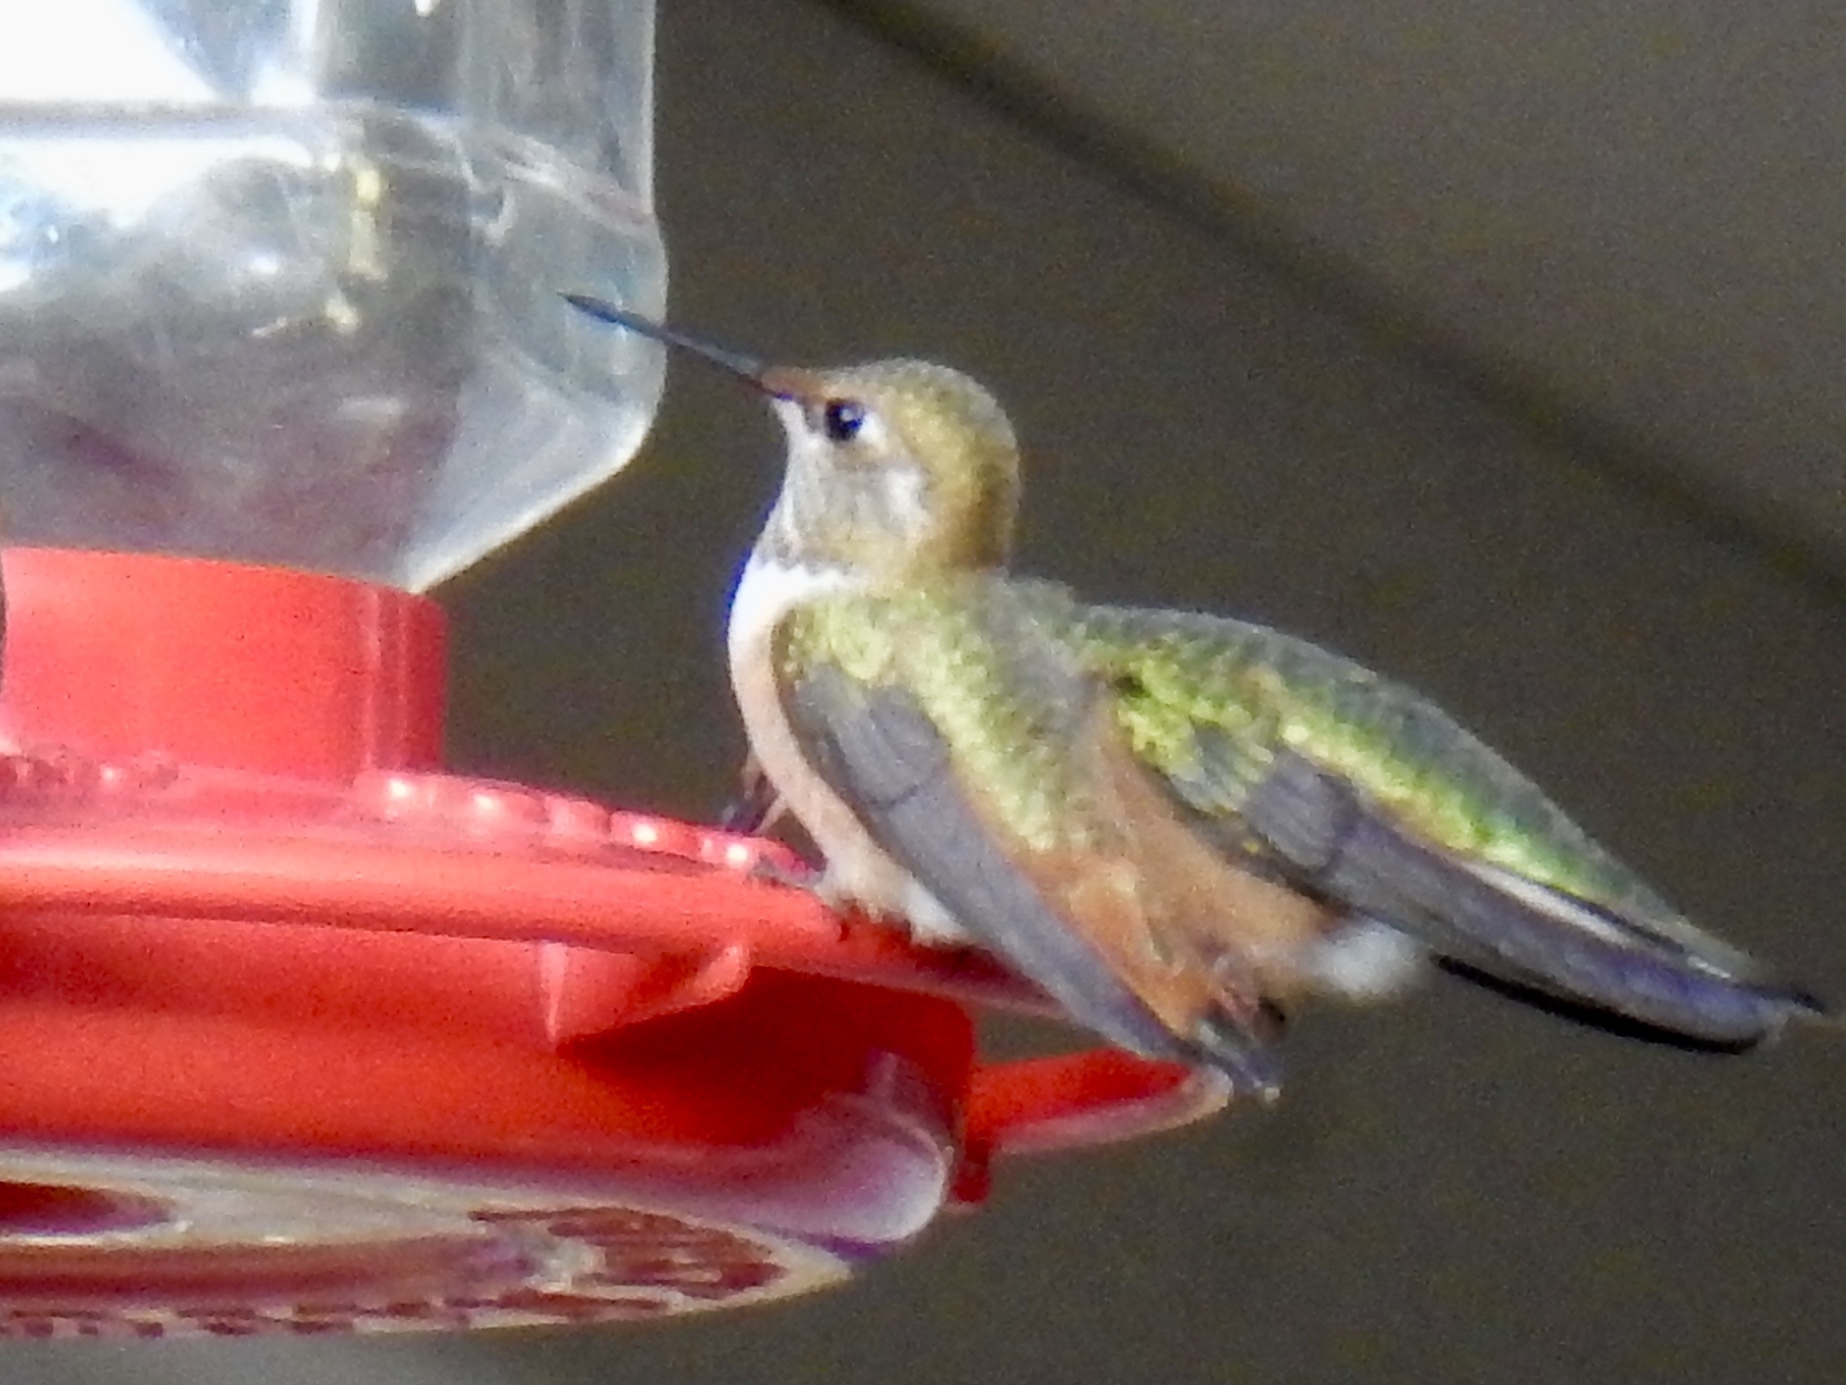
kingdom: Animalia
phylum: Chordata
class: Aves
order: Apodiformes
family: Trochilidae
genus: Selasphorus
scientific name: Selasphorus rufus
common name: Rufous hummingbird
